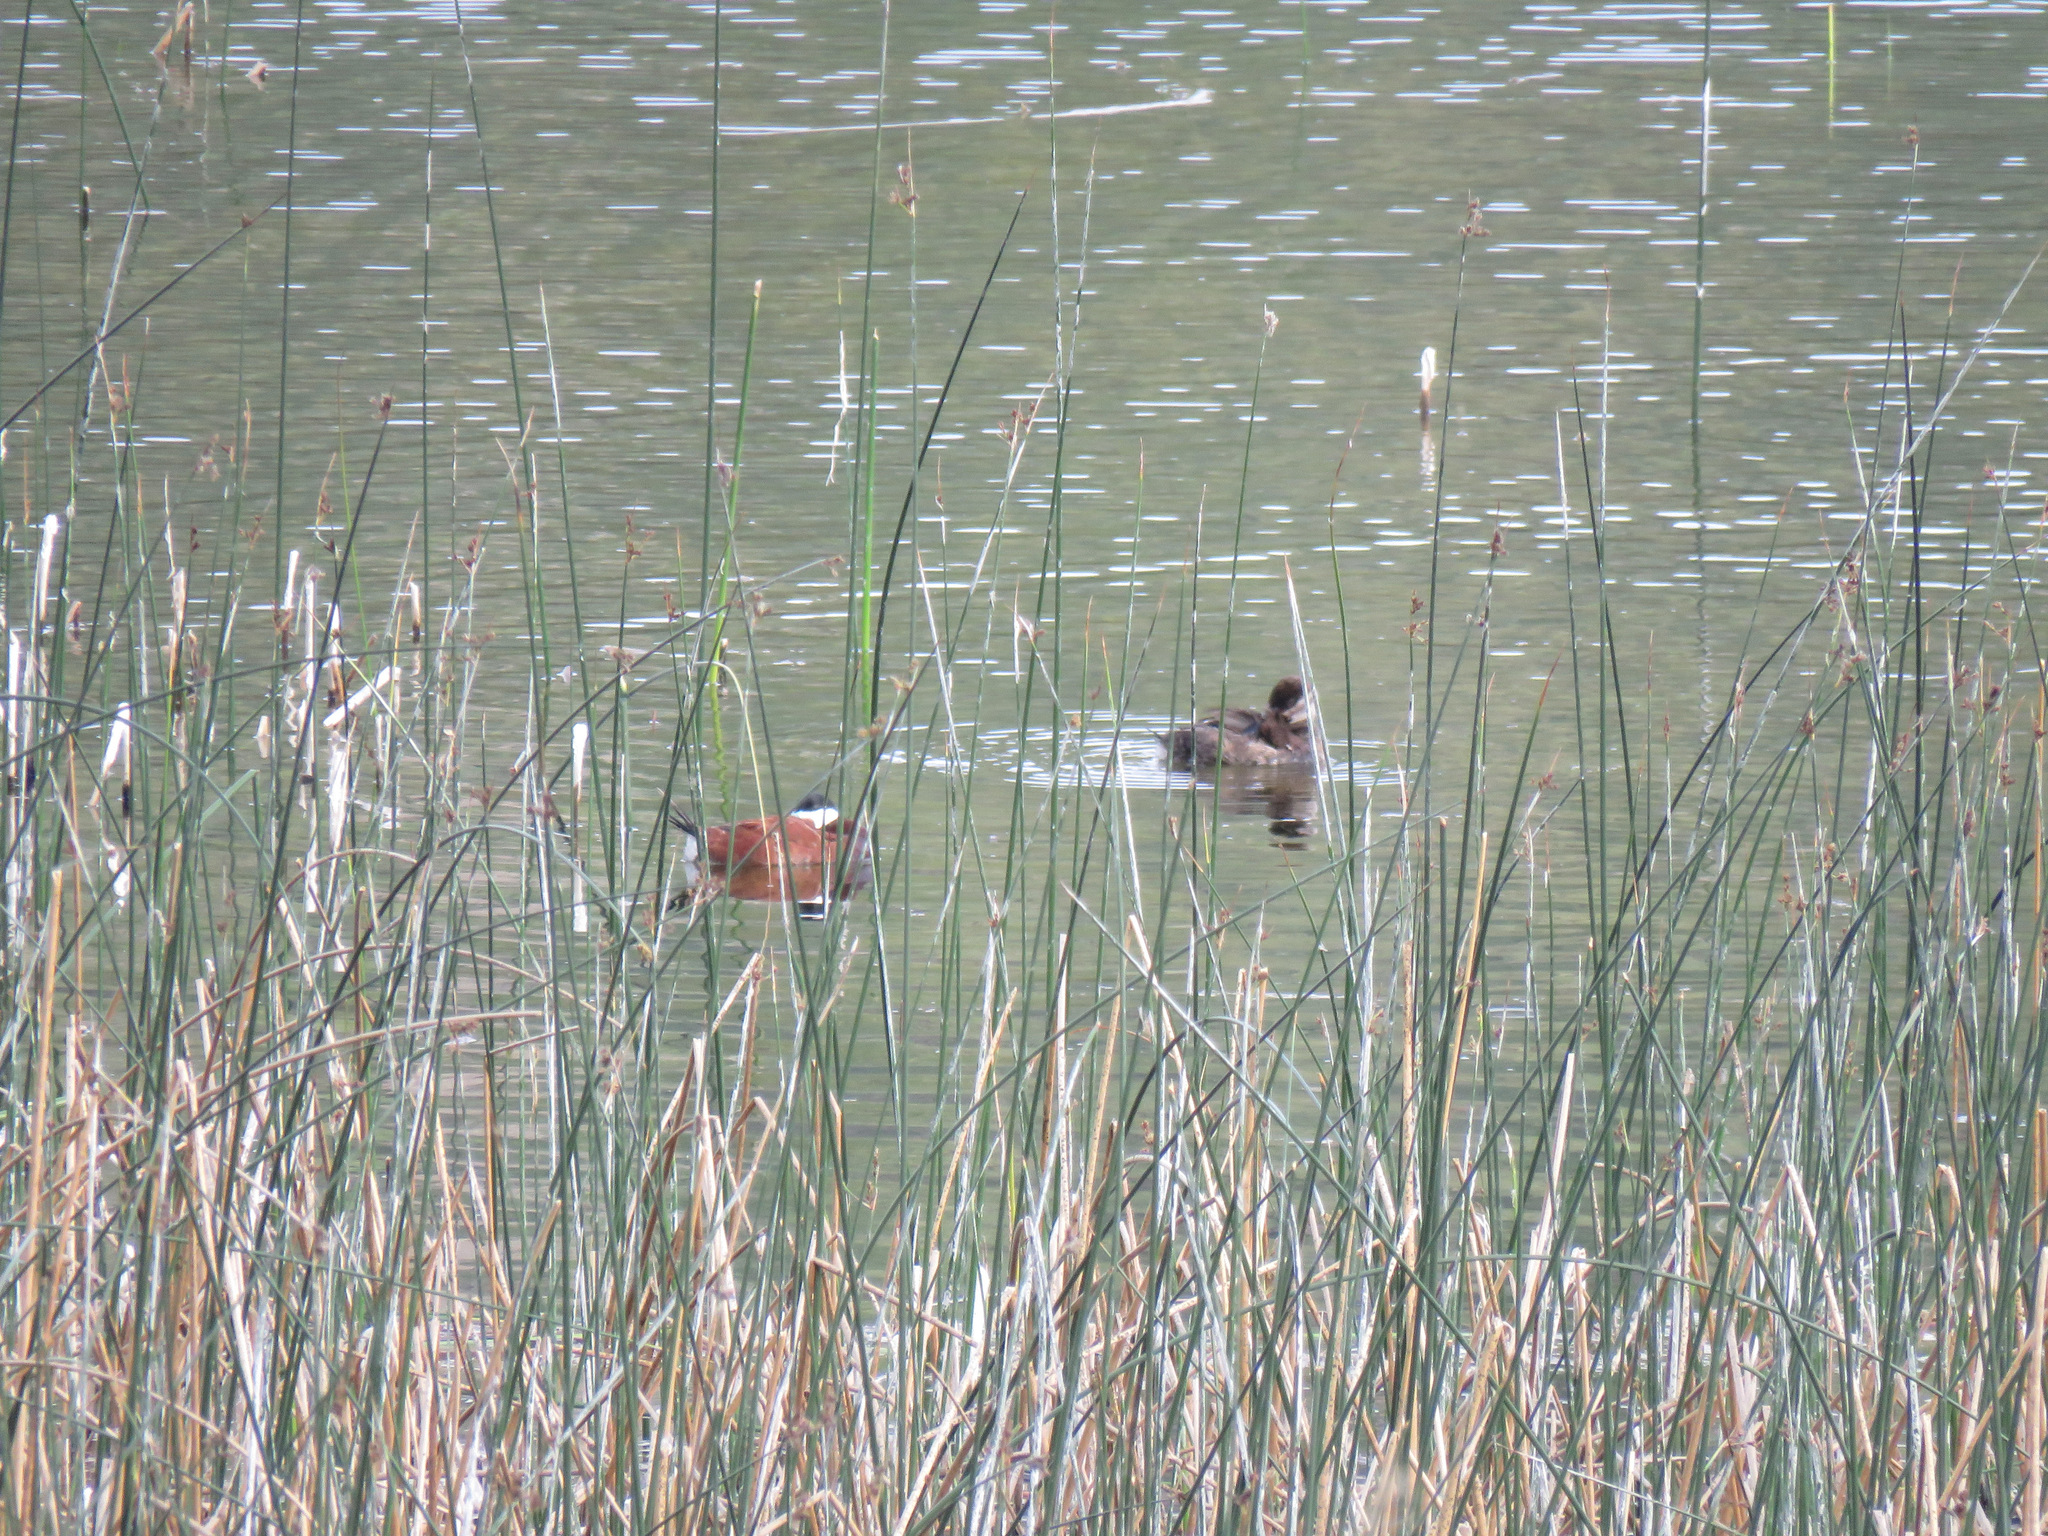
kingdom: Animalia
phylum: Chordata
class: Aves
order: Anseriformes
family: Anatidae
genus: Oxyura
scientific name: Oxyura jamaicensis
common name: Ruddy duck
